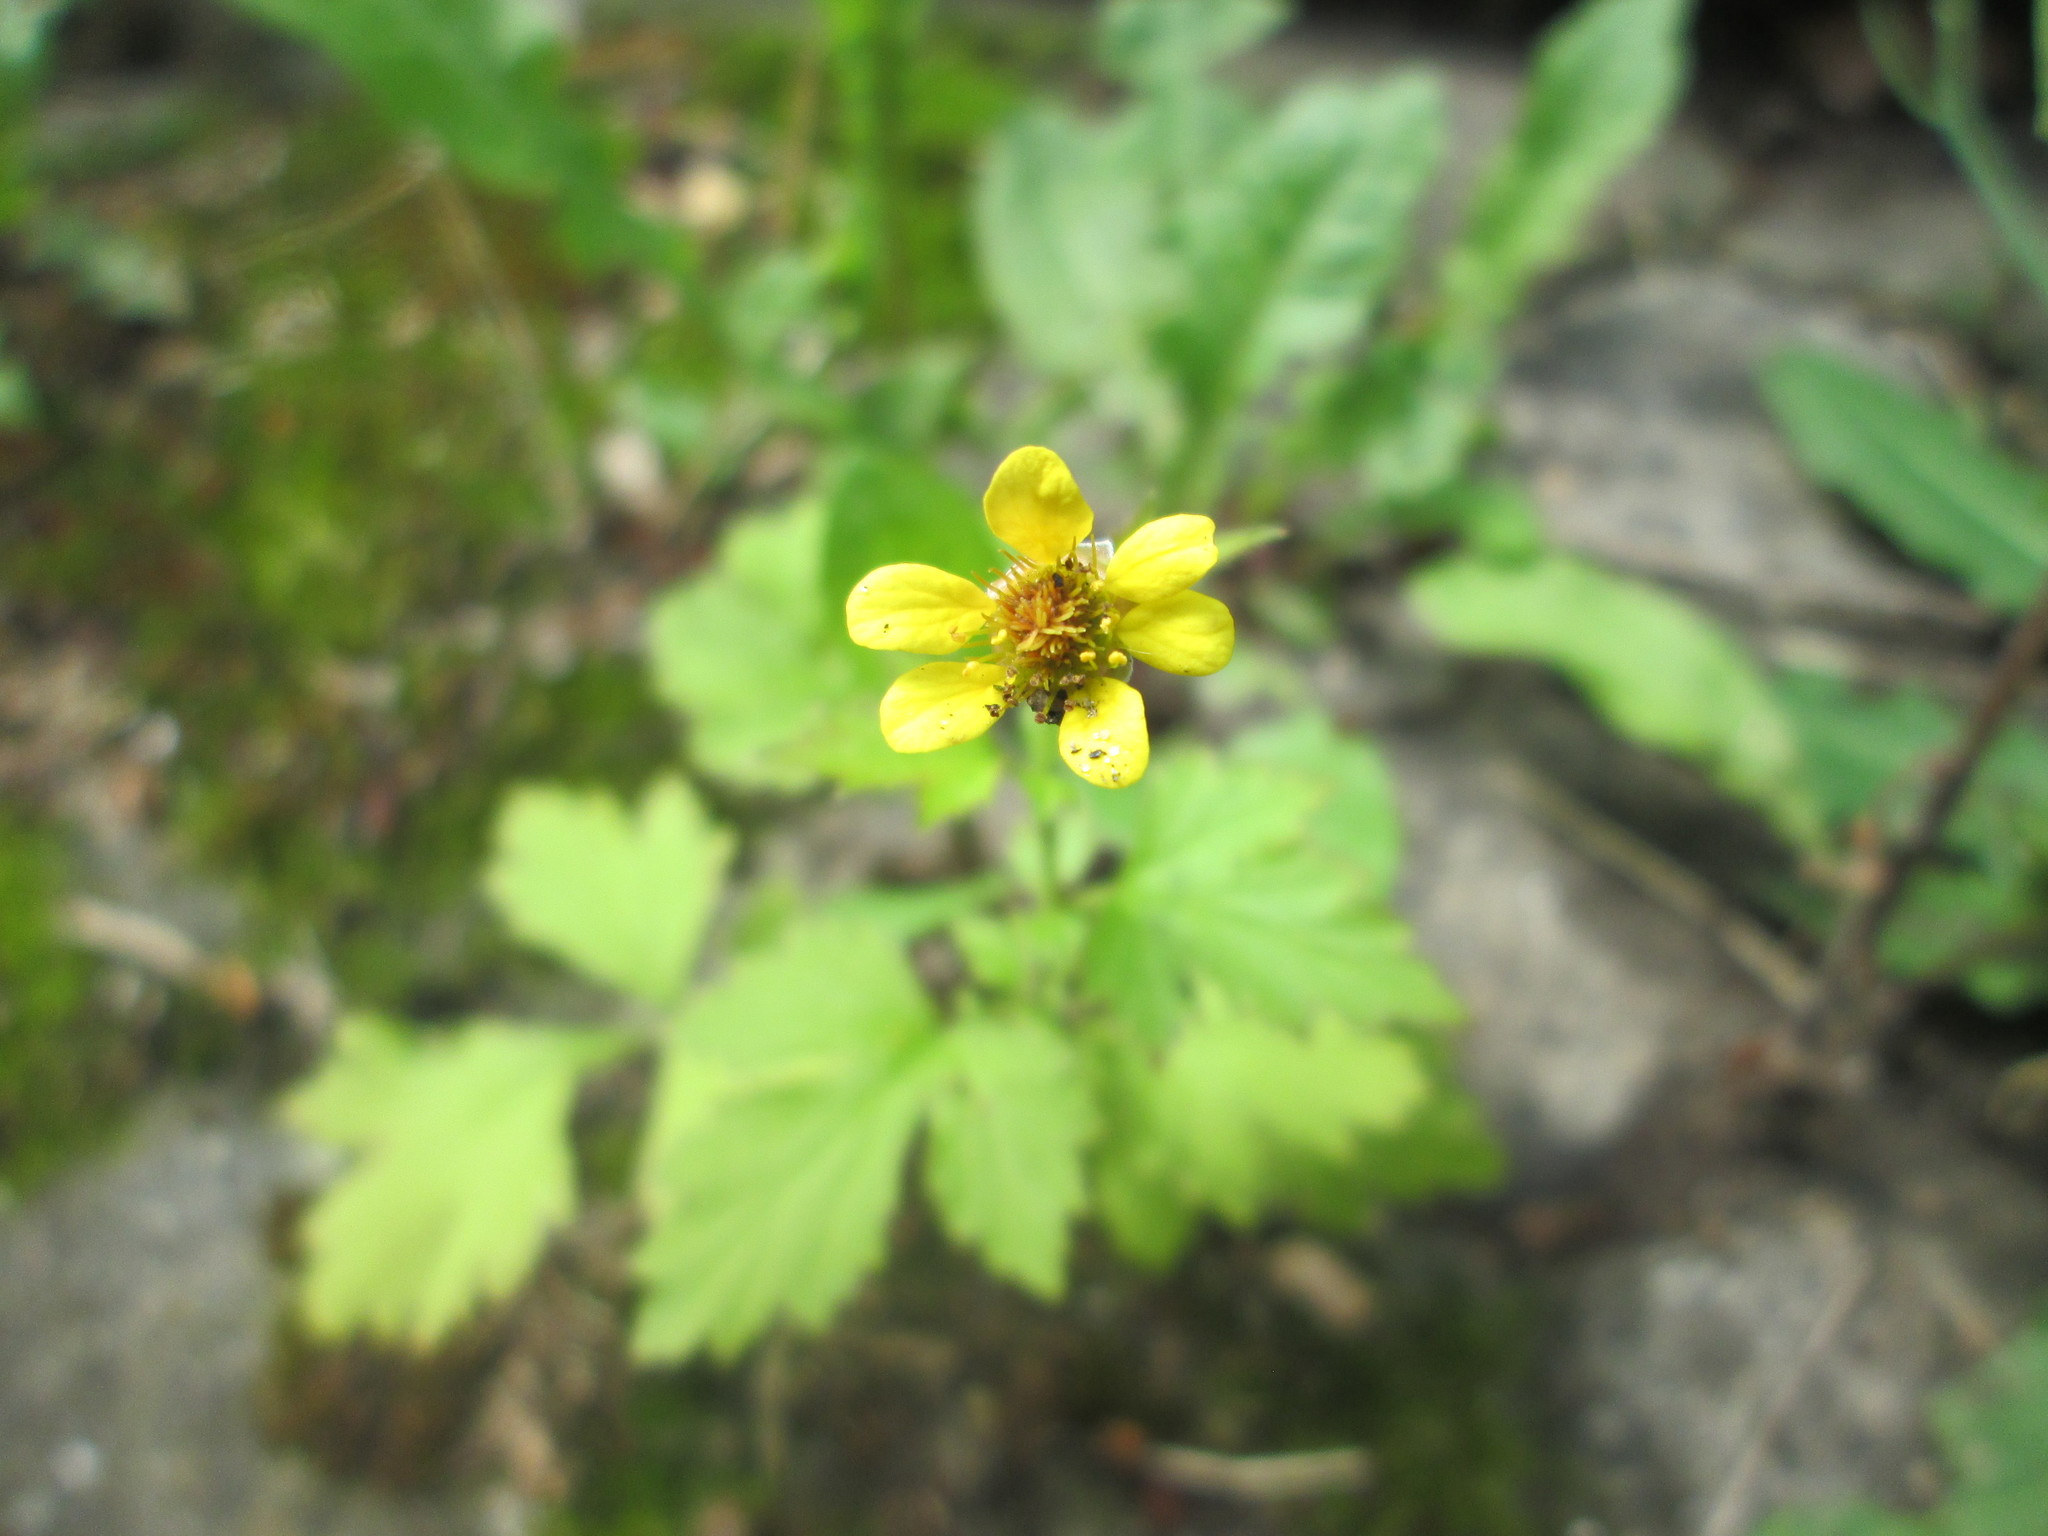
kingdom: Plantae
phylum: Tracheophyta
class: Magnoliopsida
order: Rosales
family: Rosaceae
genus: Geum
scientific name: Geum urbanum
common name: Wood avens
